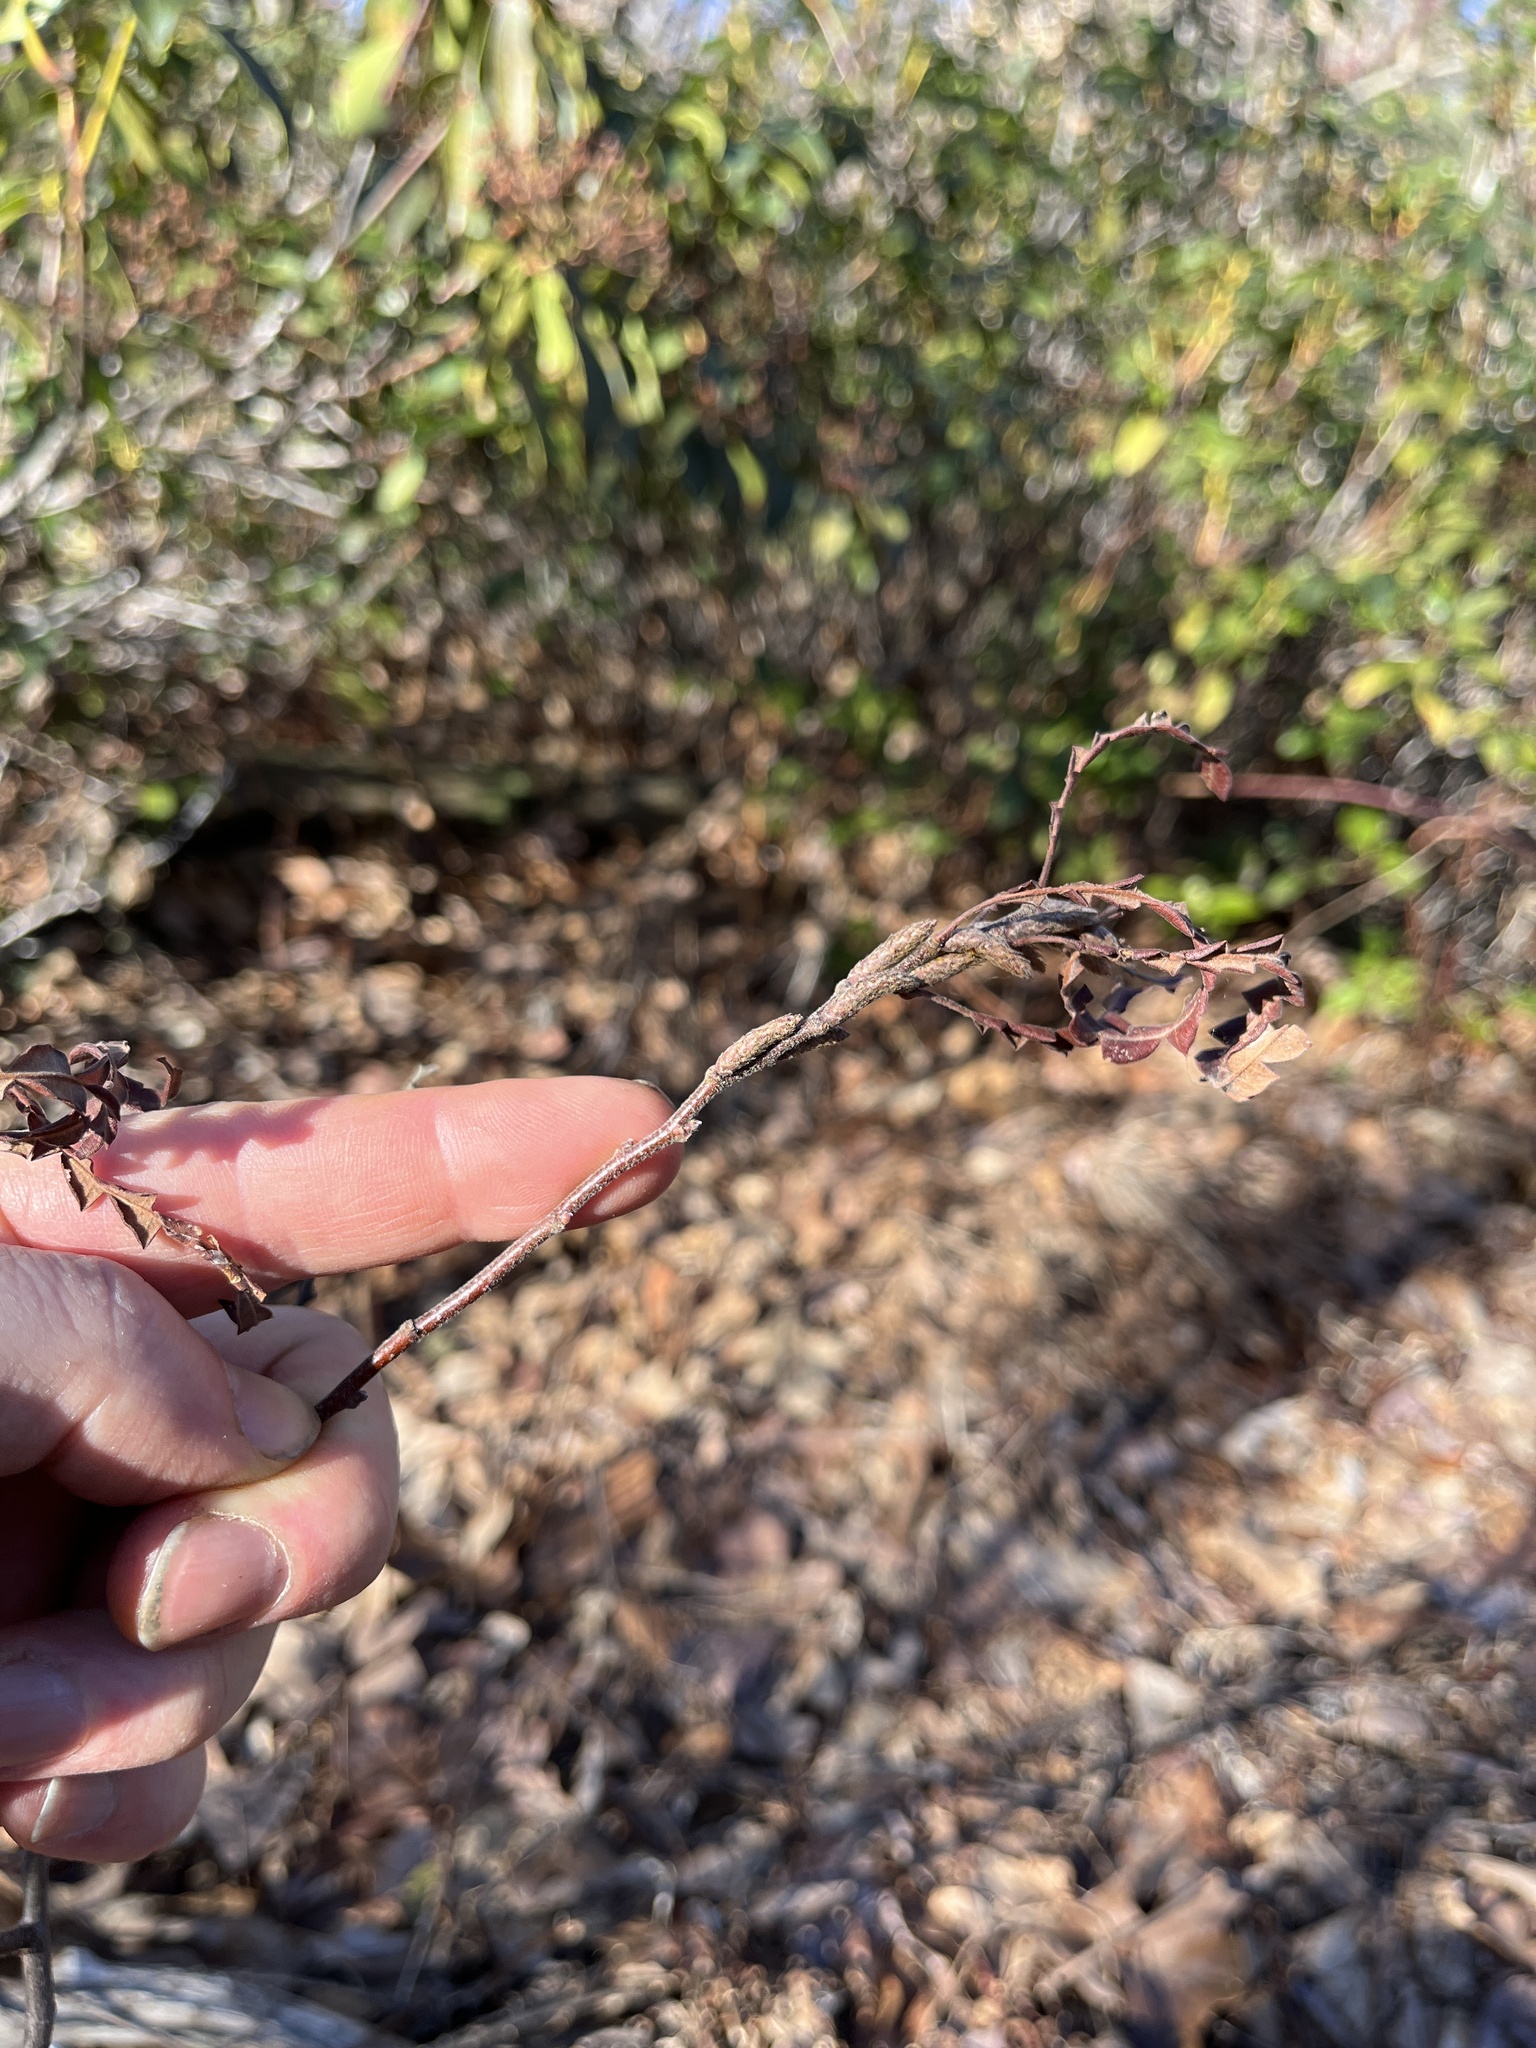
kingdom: Plantae
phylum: Tracheophyta
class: Magnoliopsida
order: Fagales
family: Myricaceae
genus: Comptonia
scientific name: Comptonia peregrina
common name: Sweet-fern
